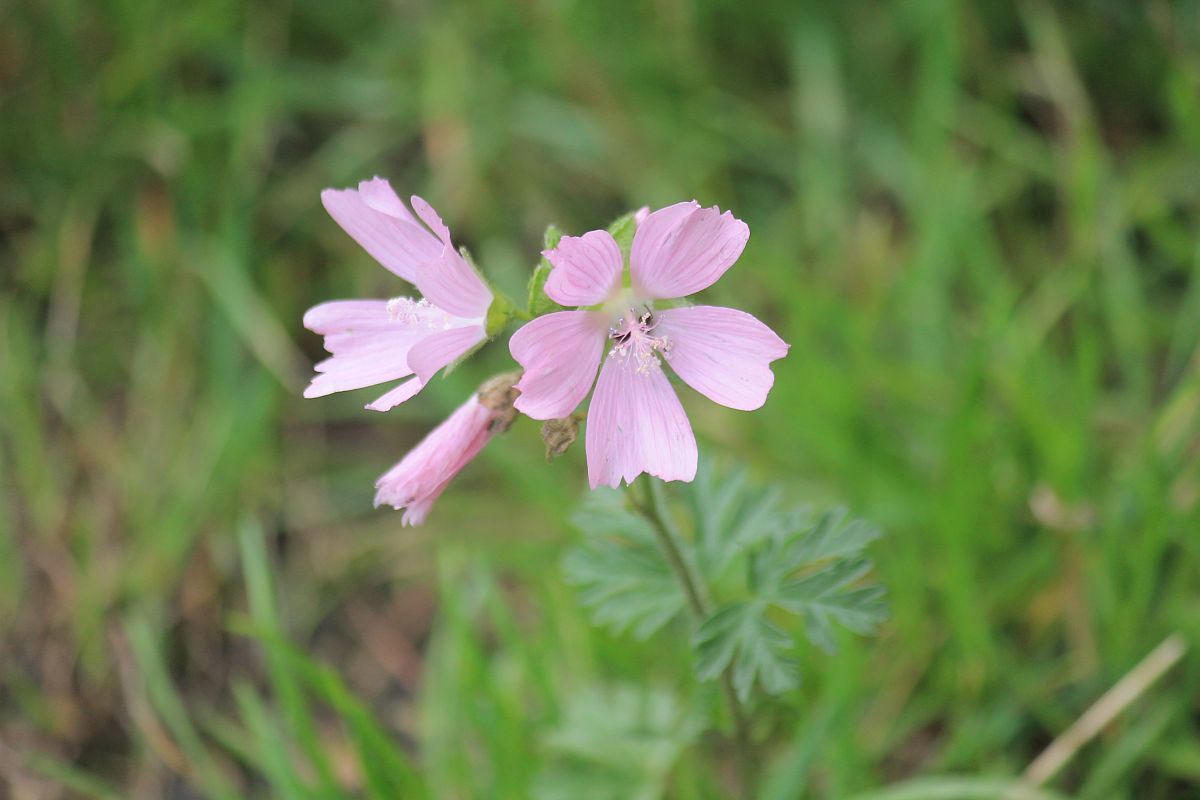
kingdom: Plantae
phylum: Tracheophyta
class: Magnoliopsida
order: Malvales
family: Malvaceae
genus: Malva
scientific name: Malva moschata
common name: Musk mallow
